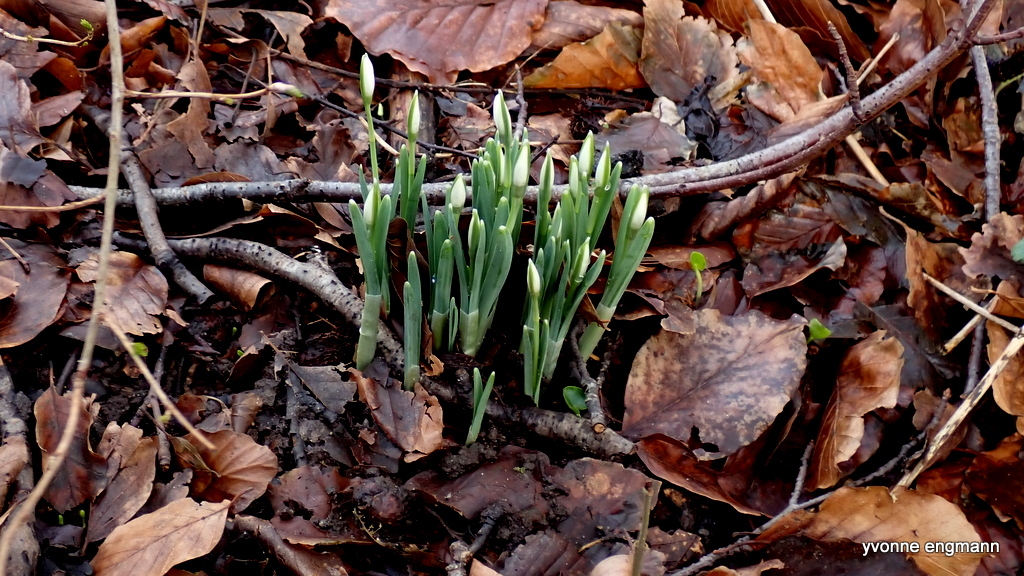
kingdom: Plantae
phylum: Tracheophyta
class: Liliopsida
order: Asparagales
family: Amaryllidaceae
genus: Galanthus
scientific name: Galanthus nivalis
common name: Snowdrop
